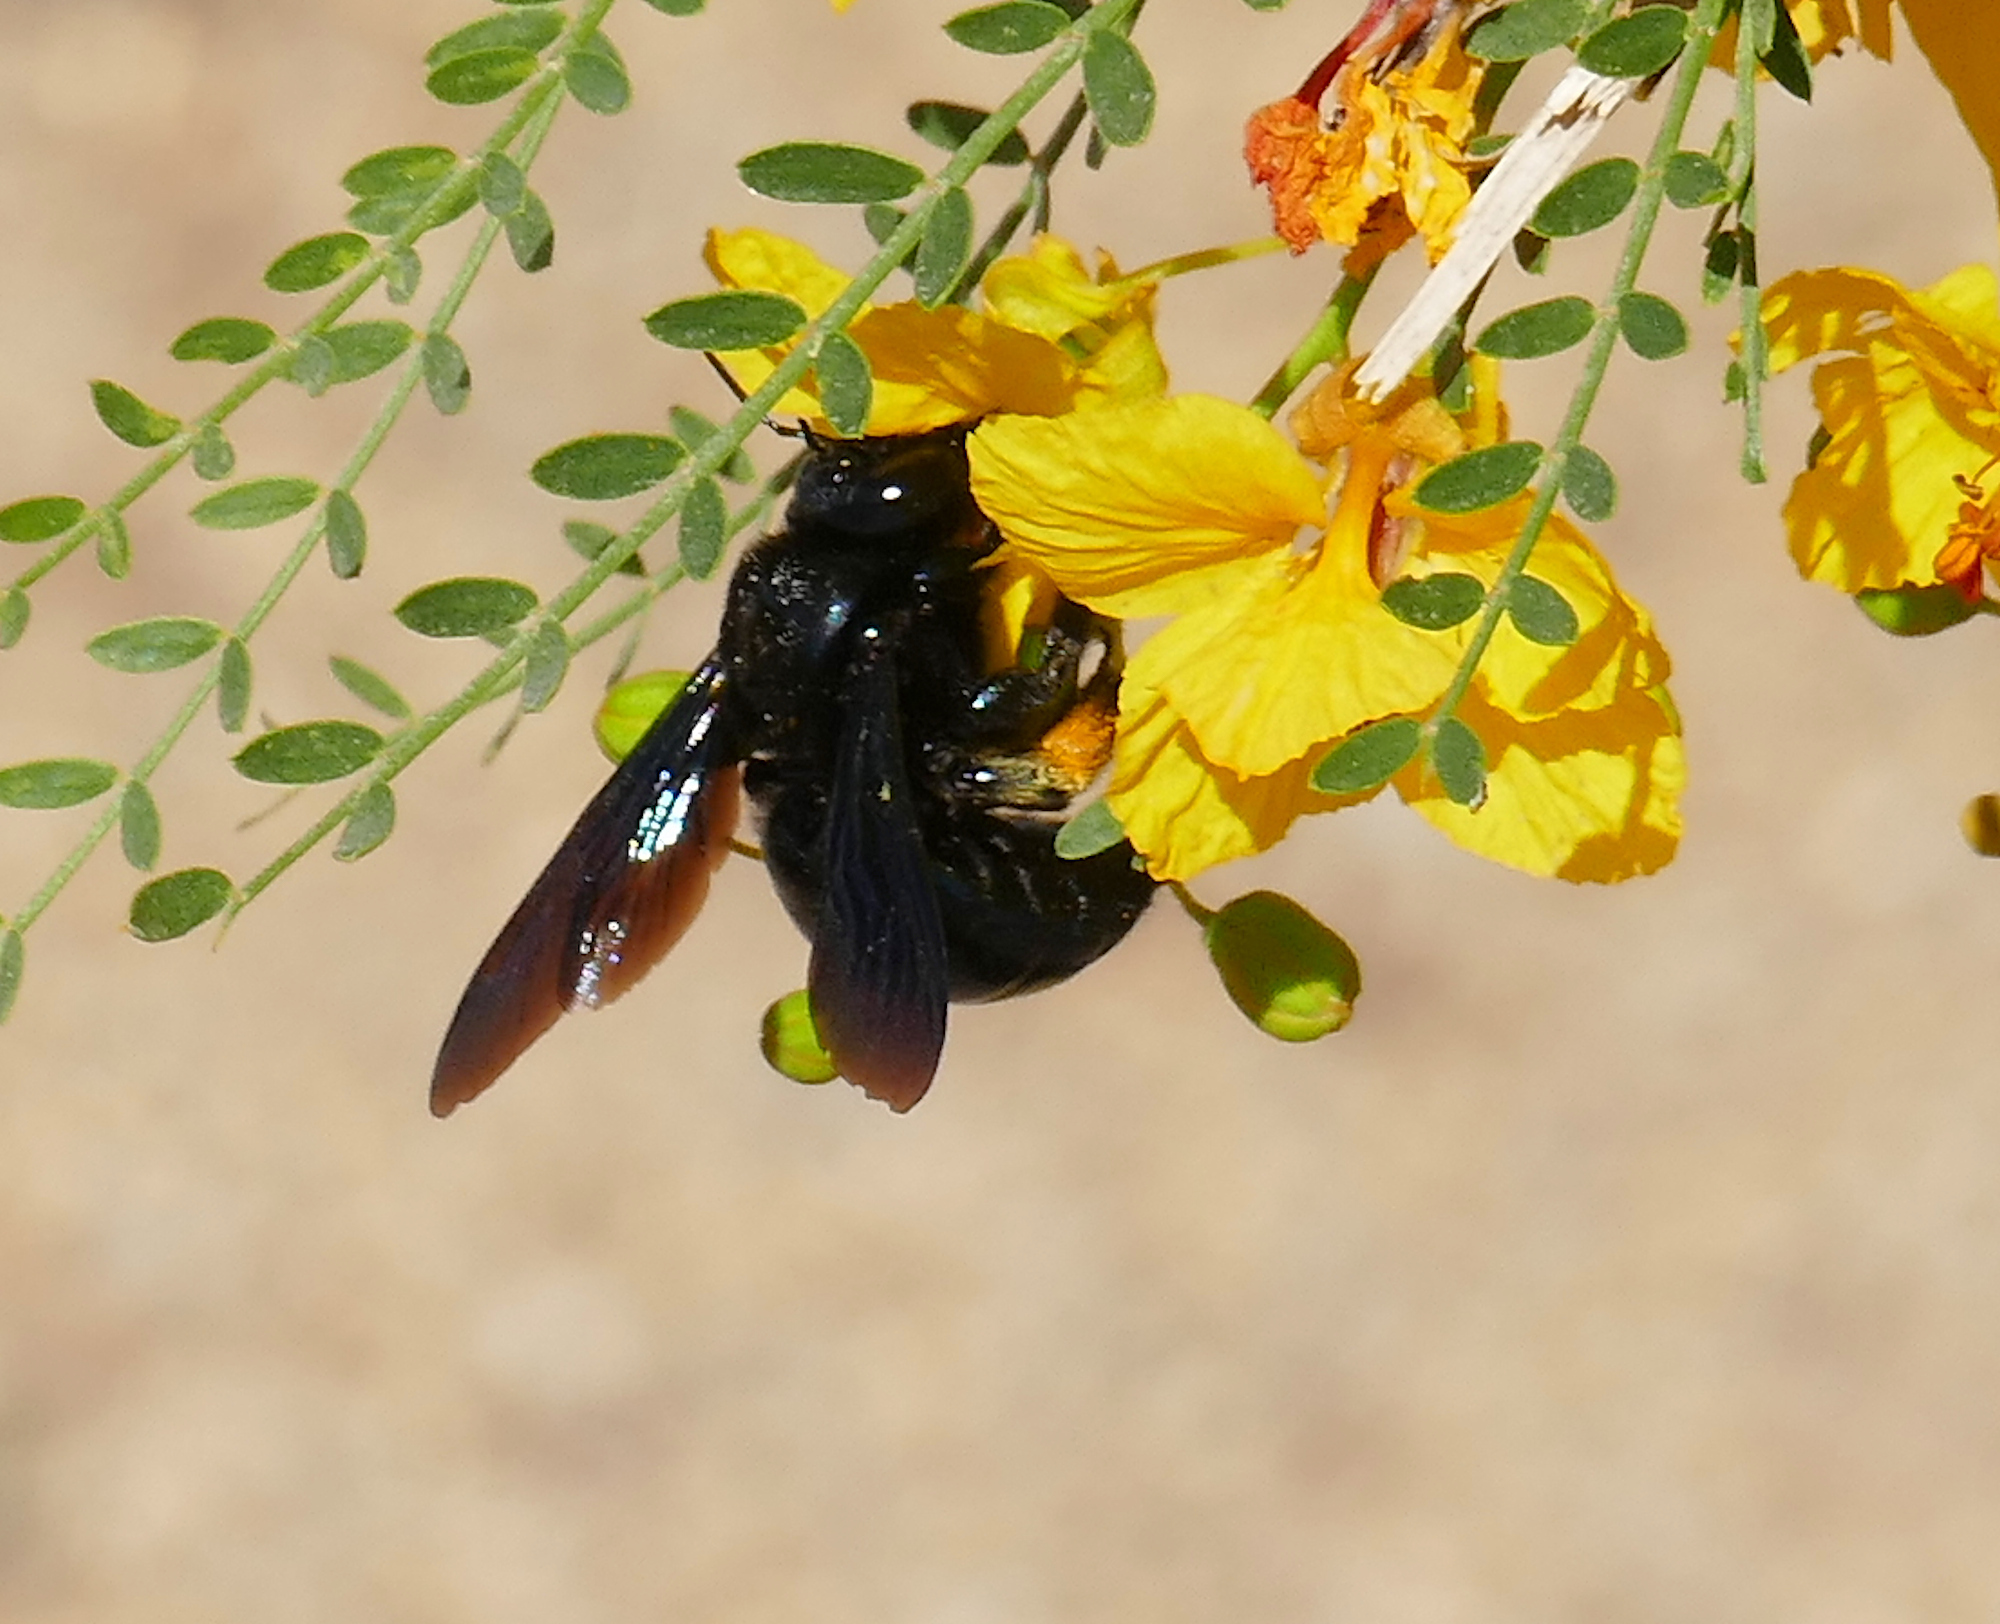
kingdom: Animalia
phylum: Arthropoda
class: Insecta
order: Hymenoptera
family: Apidae
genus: Xylocopa
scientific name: Xylocopa californica
